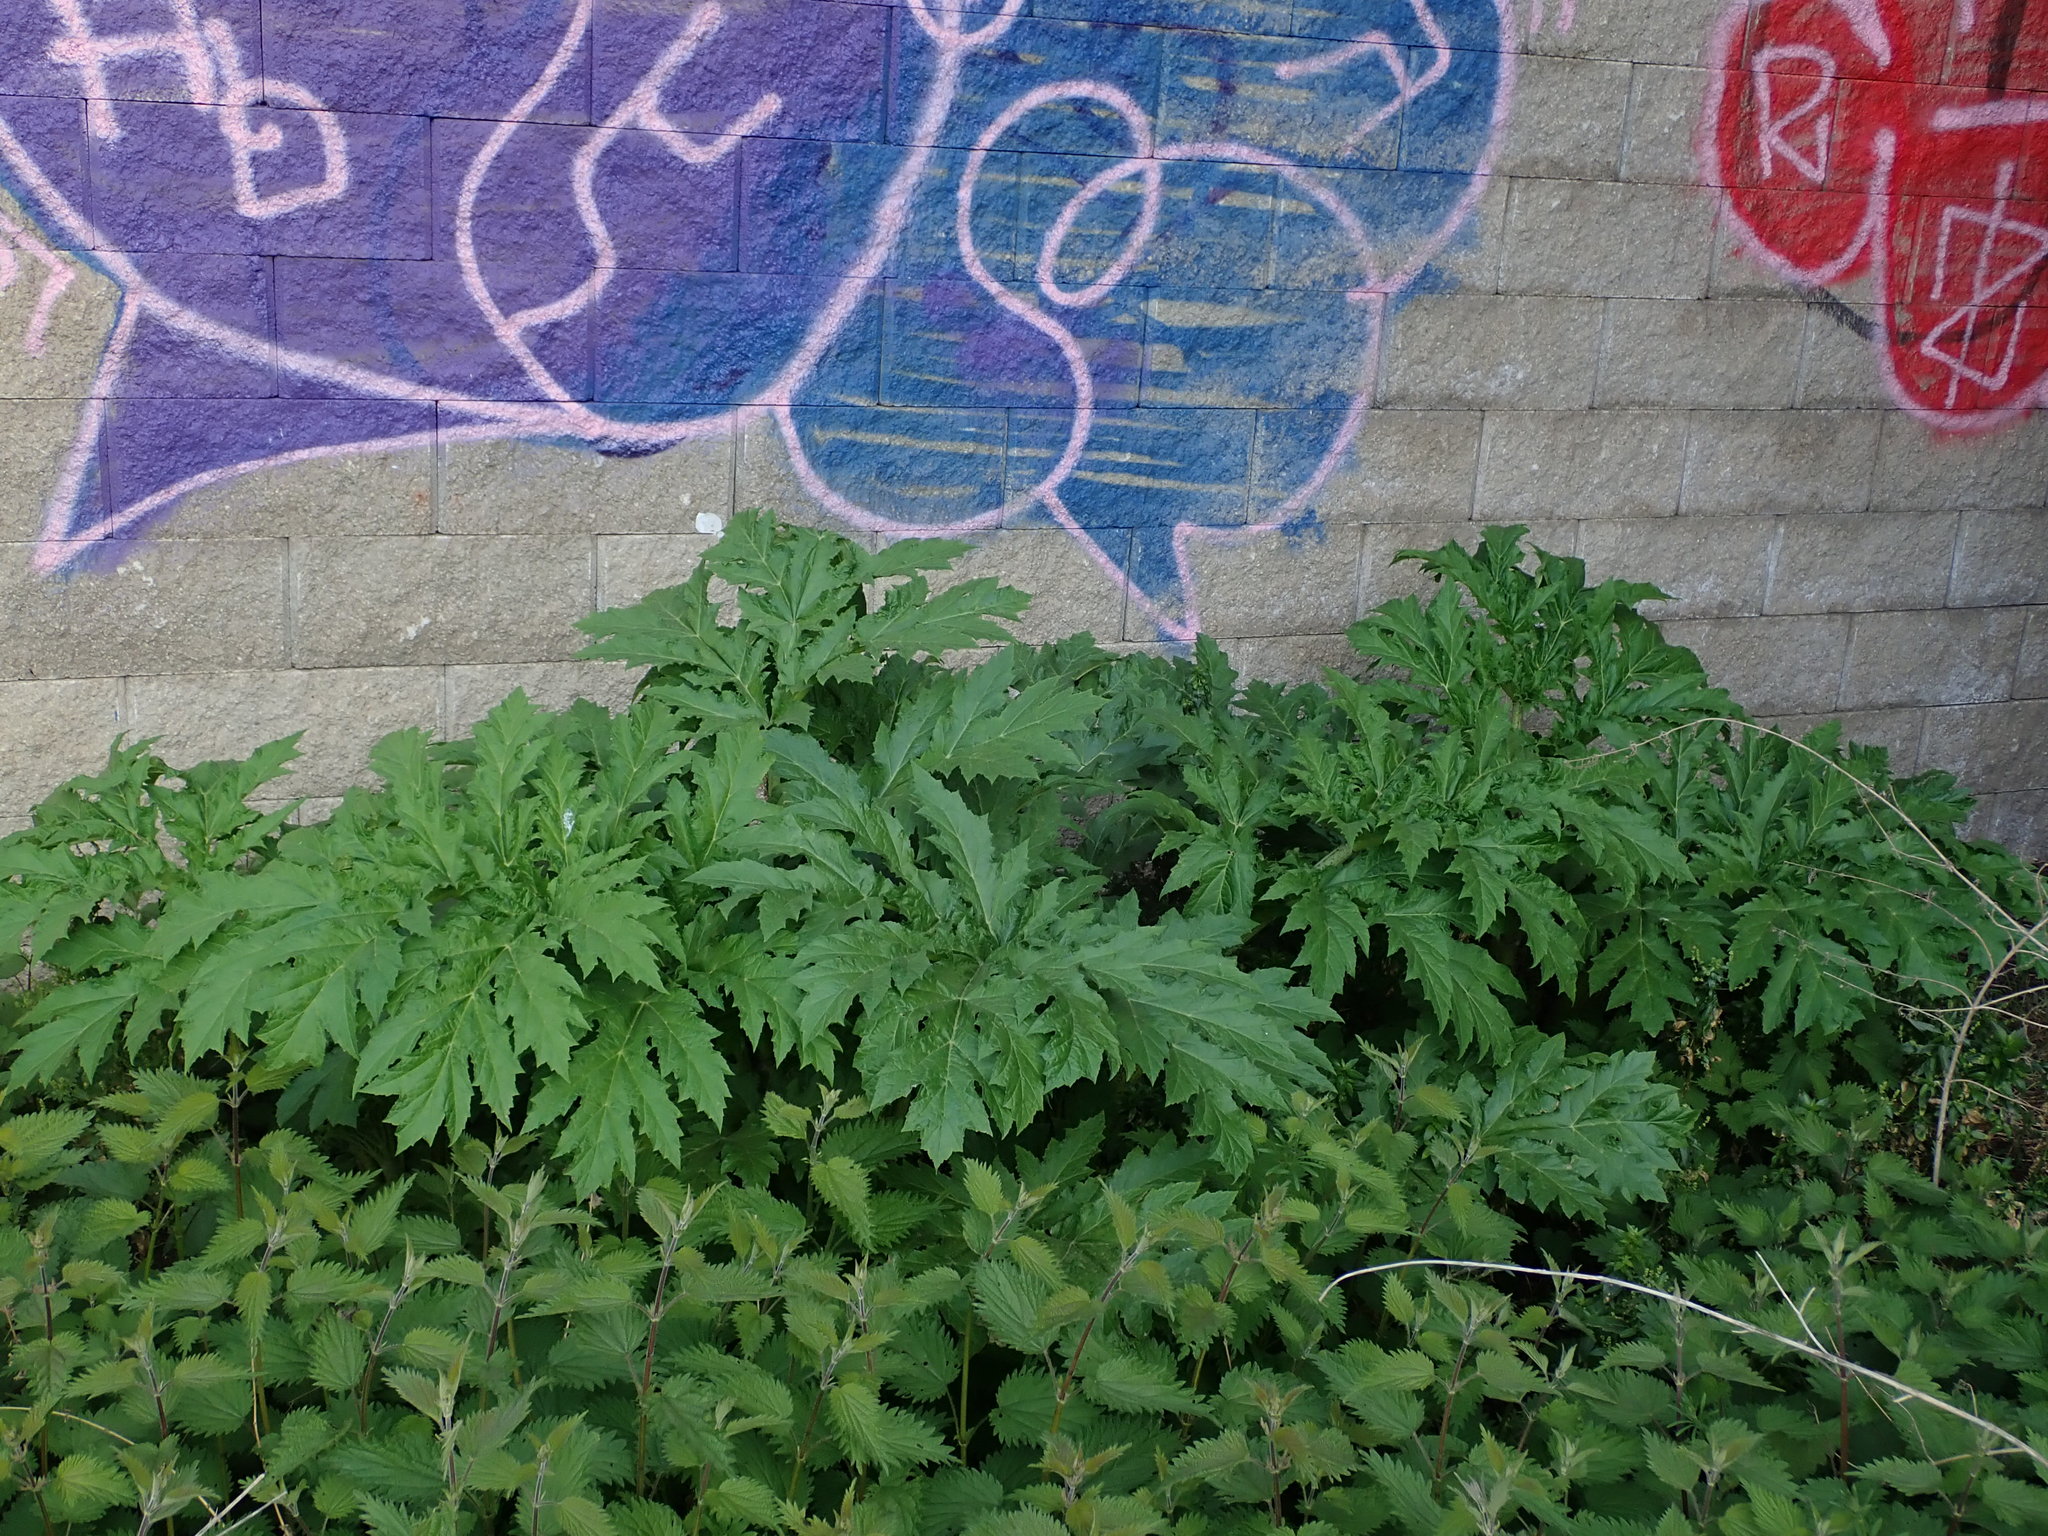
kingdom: Plantae
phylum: Tracheophyta
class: Magnoliopsida
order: Apiales
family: Apiaceae
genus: Heracleum
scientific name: Heracleum mantegazzianum
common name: Giant hogweed
